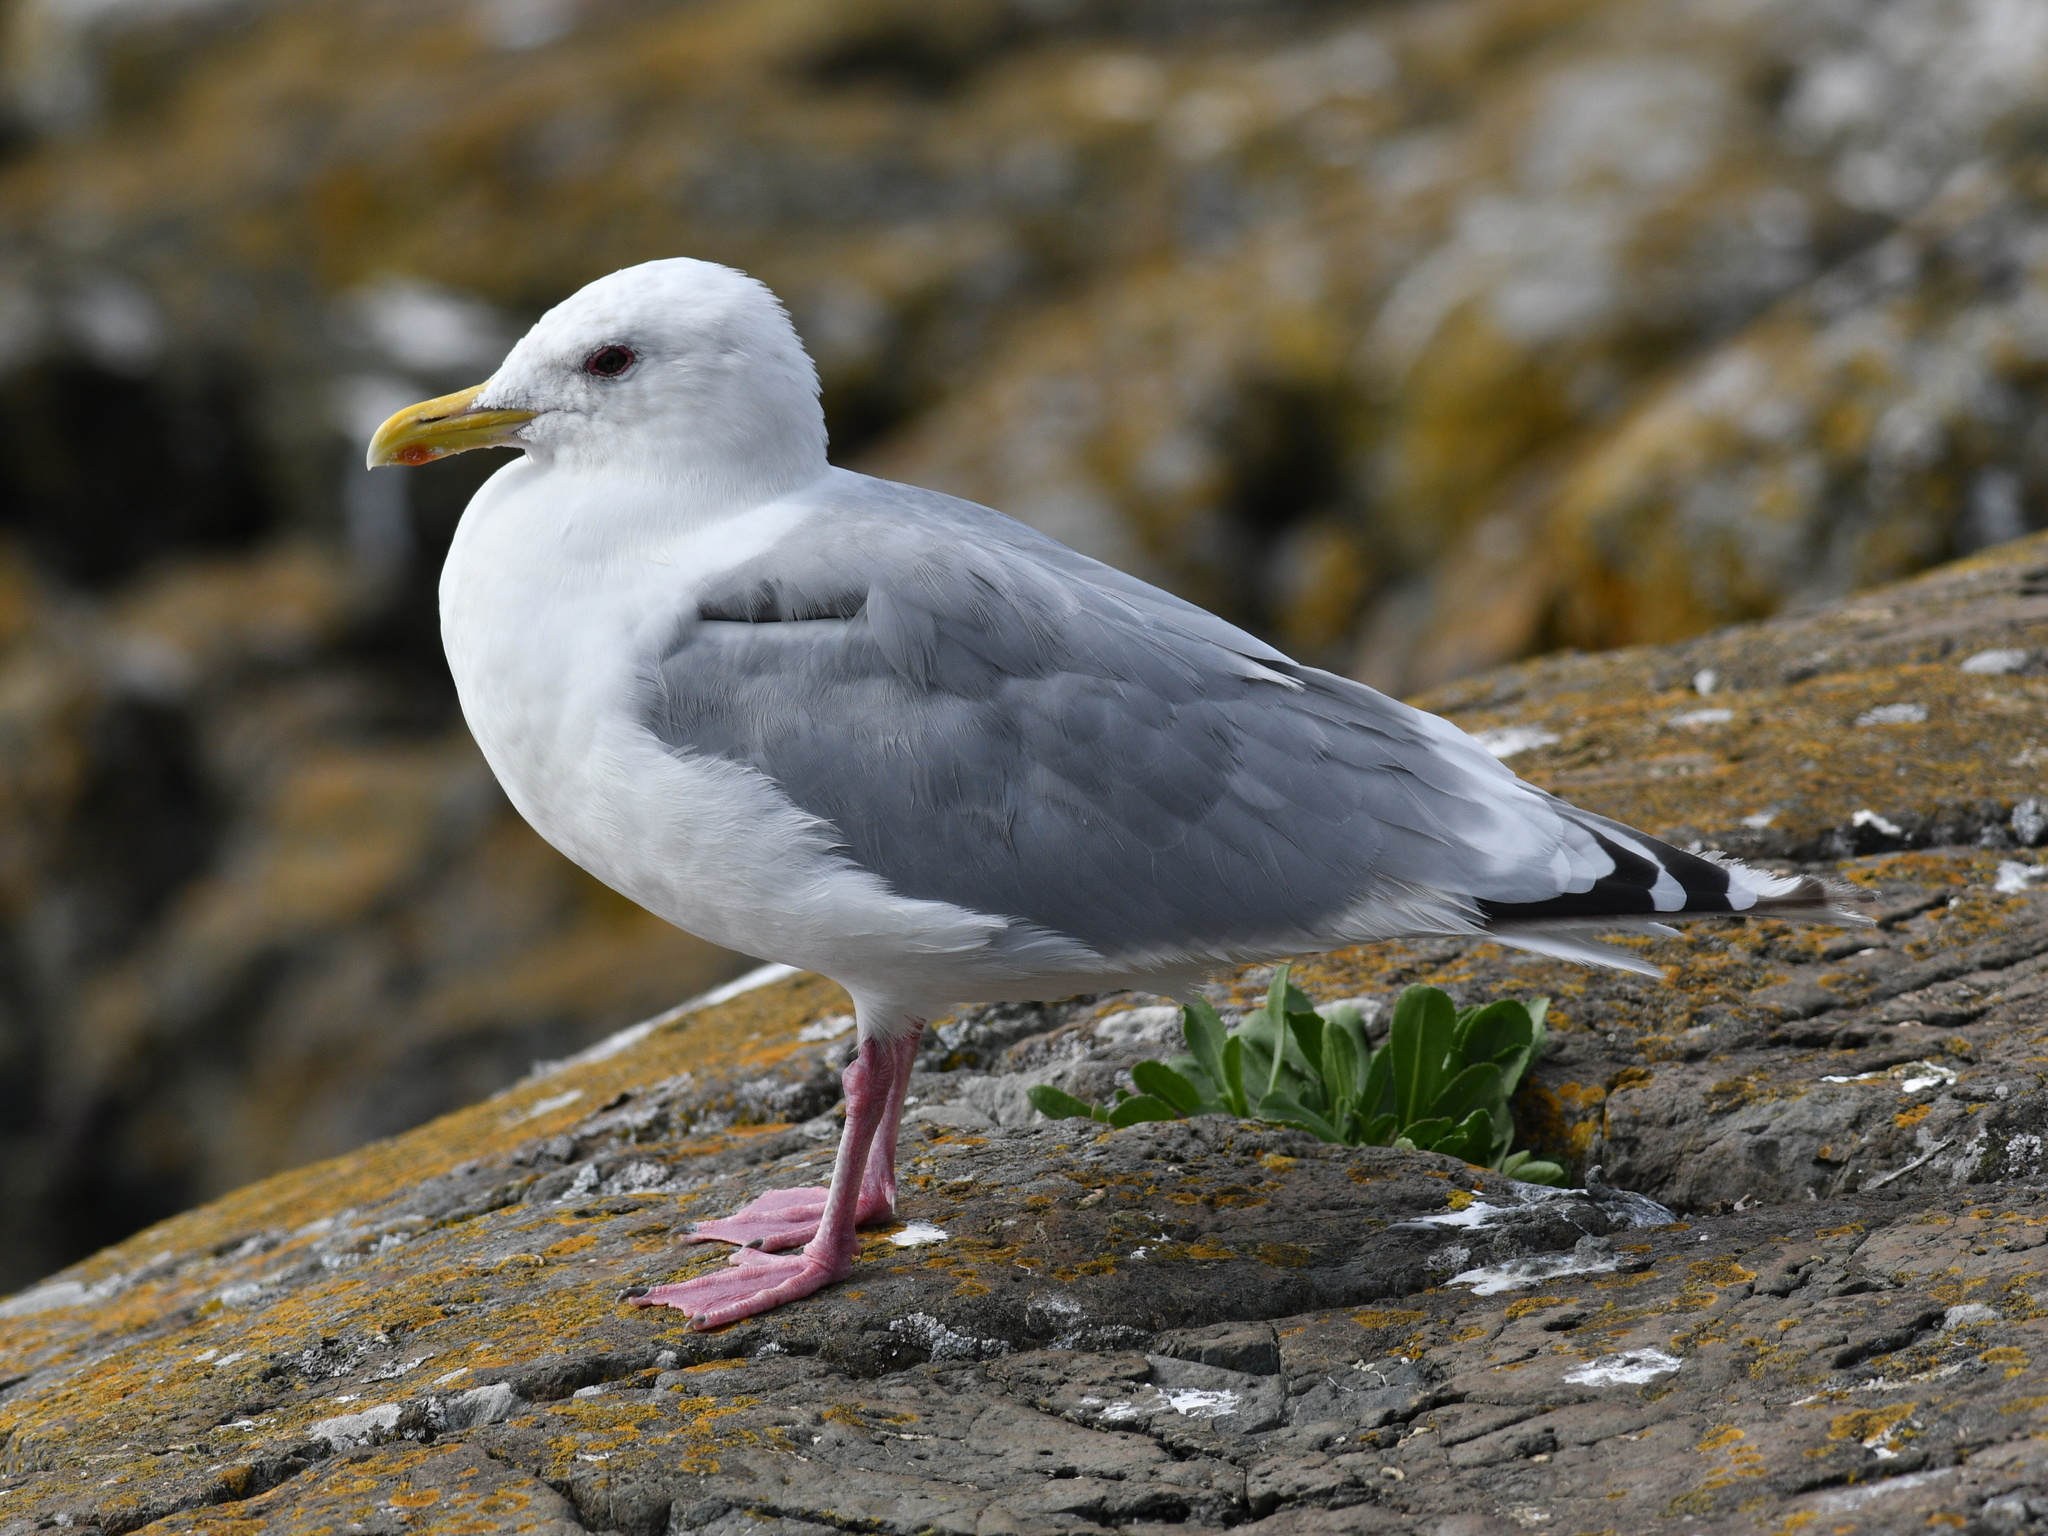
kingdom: Animalia
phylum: Chordata
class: Aves
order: Charadriiformes
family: Laridae
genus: Larus
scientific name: Larus glaucoides
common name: Iceland gull
